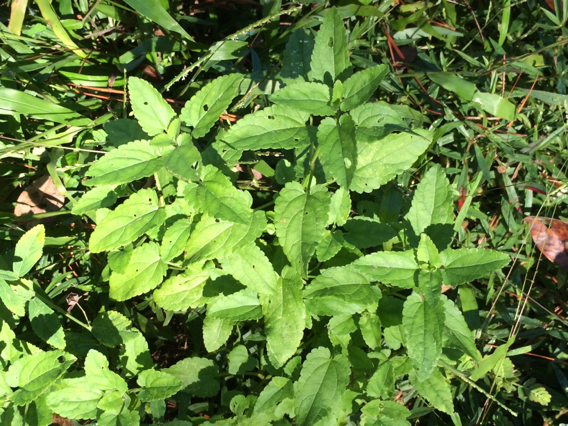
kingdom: Plantae
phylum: Tracheophyta
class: Magnoliopsida
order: Lamiales
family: Lamiaceae
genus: Stachys
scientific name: Stachys floridana
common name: Florida betony
